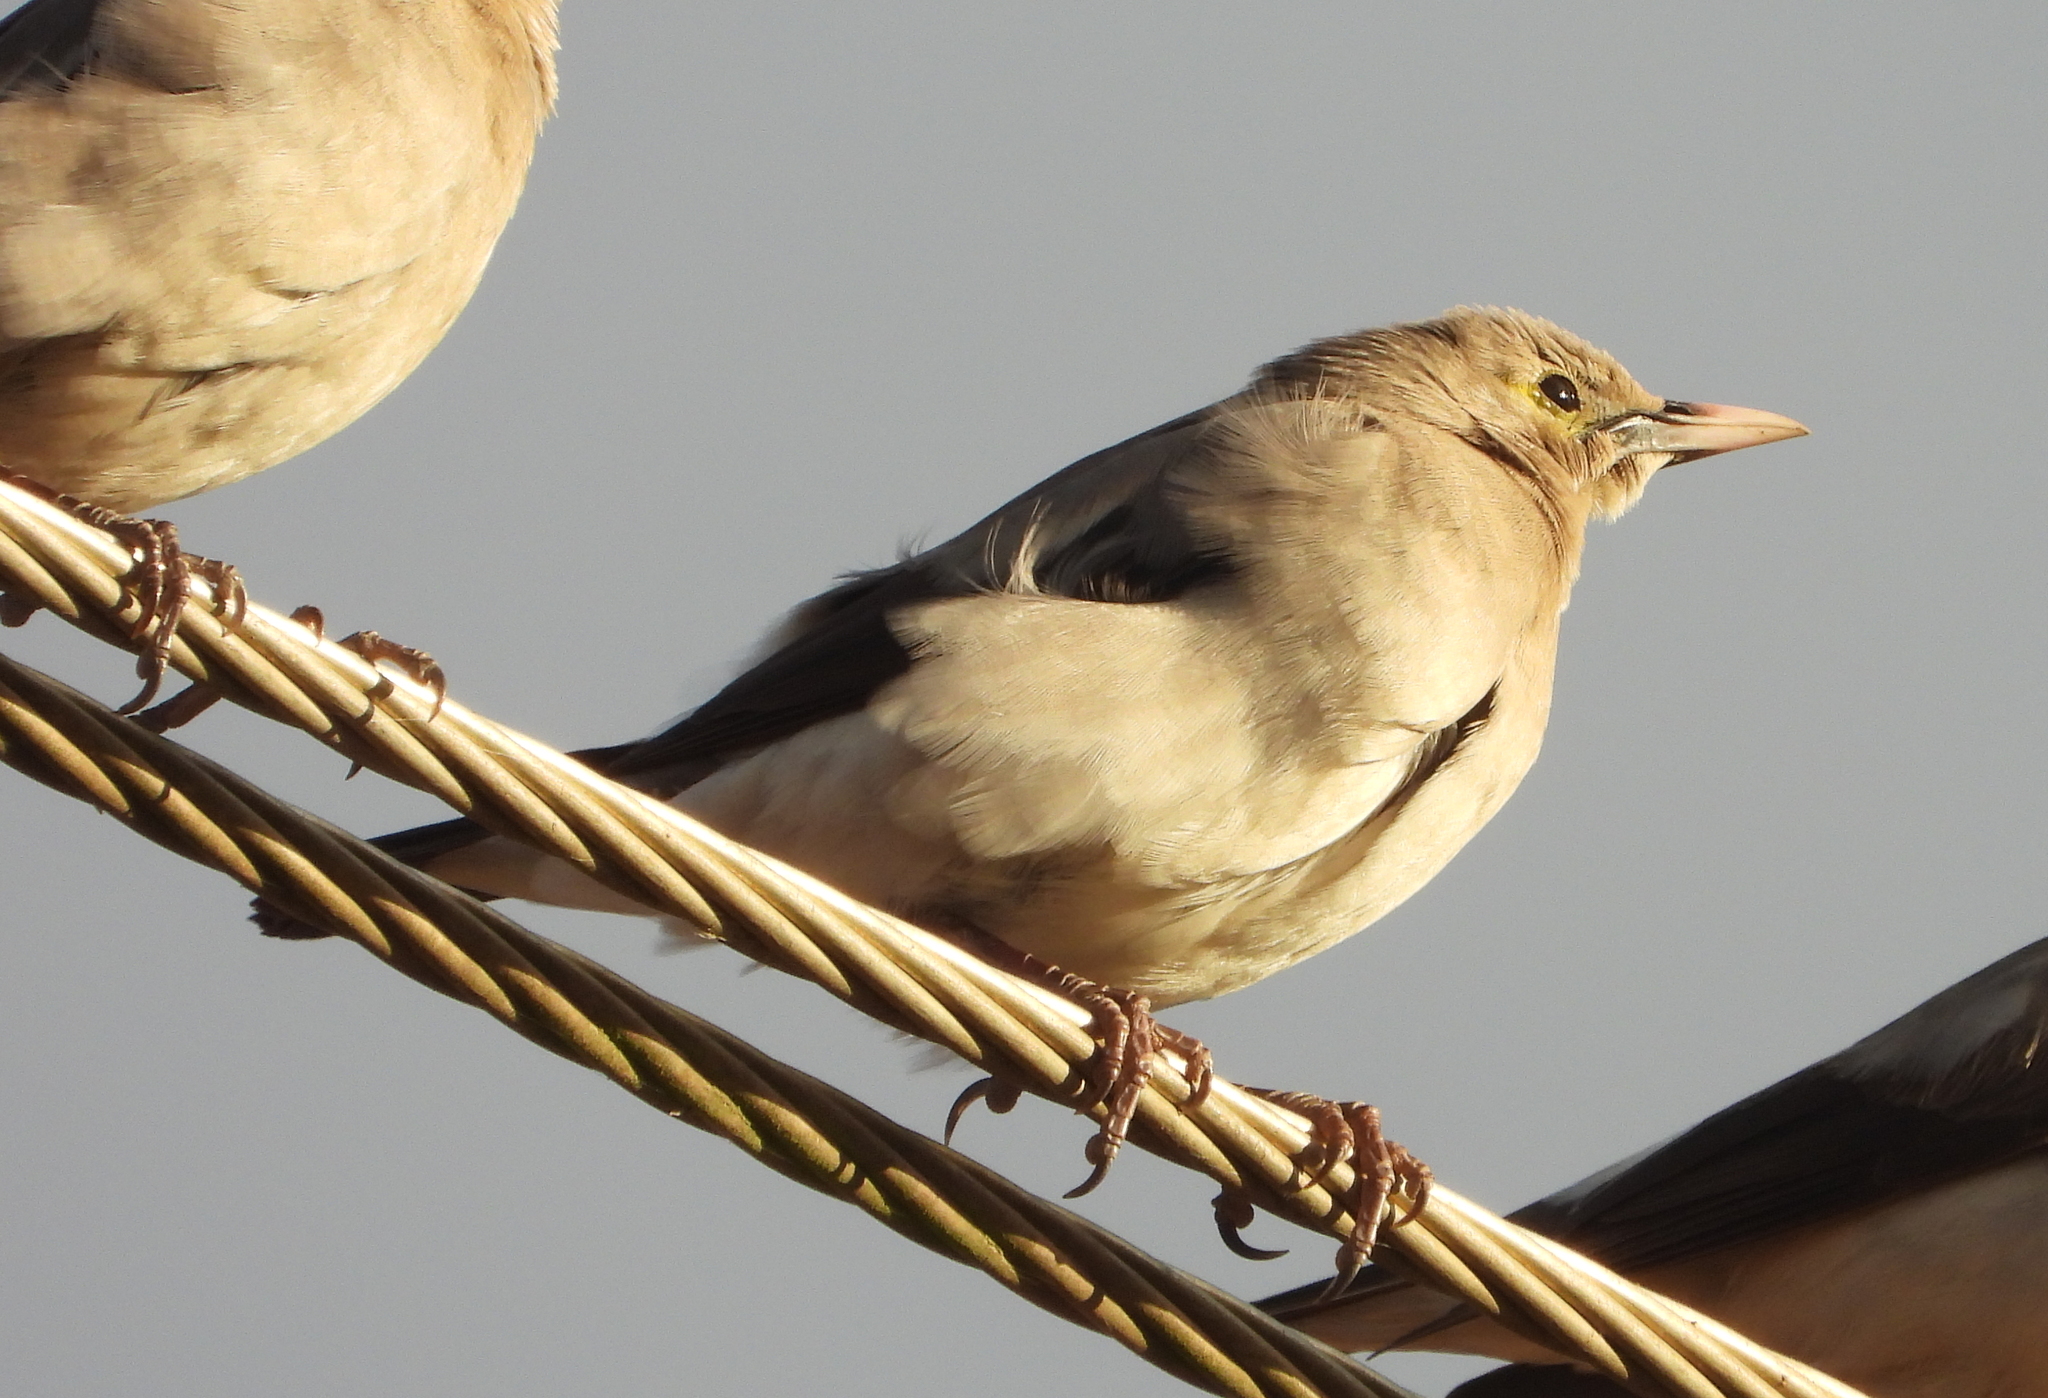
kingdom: Animalia
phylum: Chordata
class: Aves
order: Passeriformes
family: Sturnidae
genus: Creatophora
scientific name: Creatophora cinerea
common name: Wattled starling
